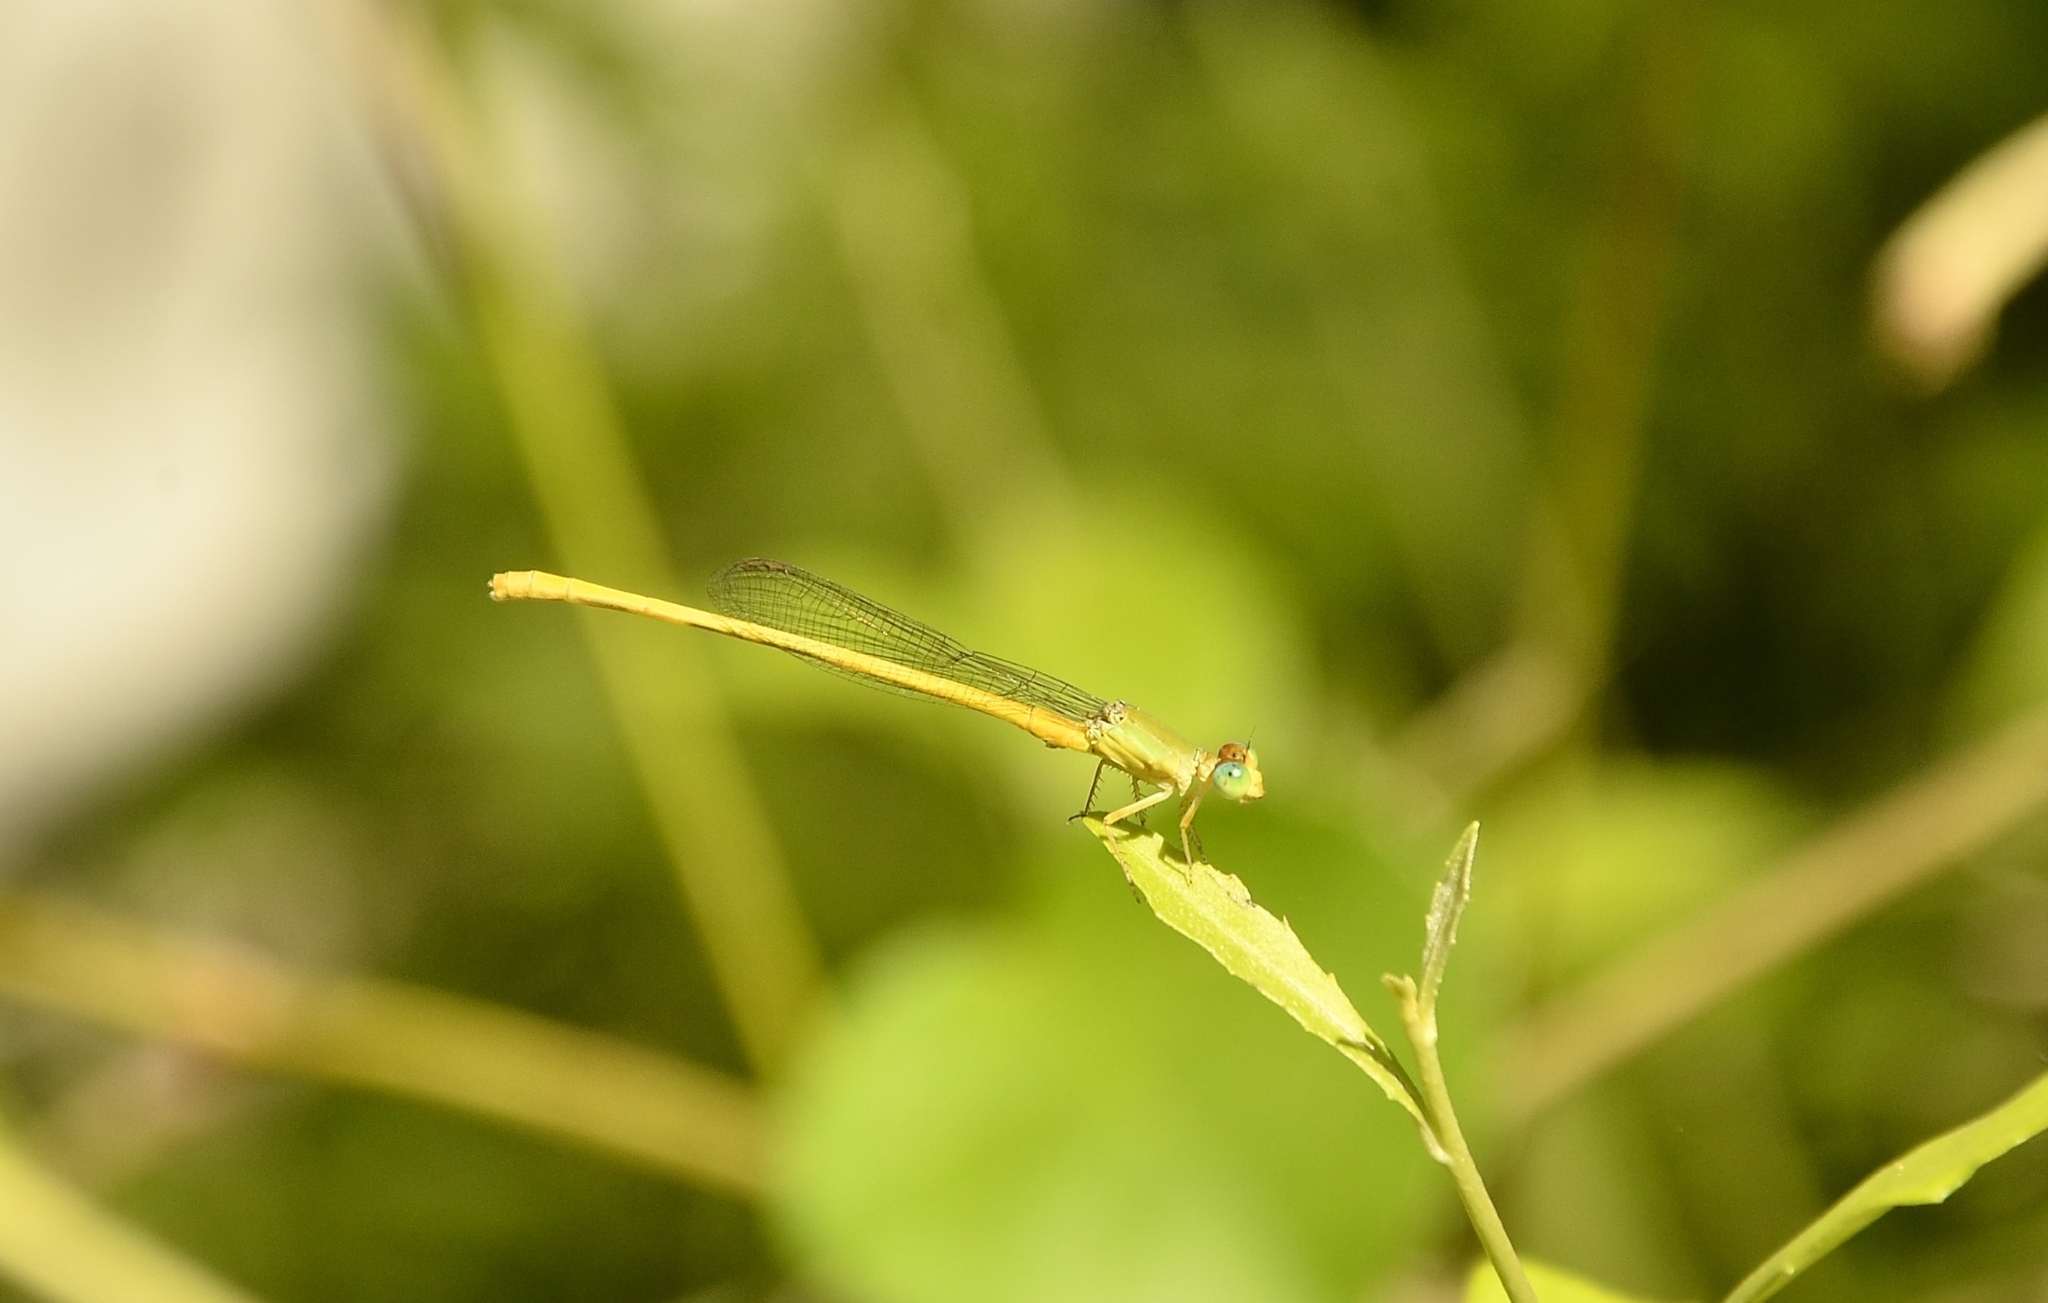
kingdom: Animalia
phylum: Arthropoda
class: Insecta
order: Odonata
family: Coenagrionidae
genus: Ceriagrion
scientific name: Ceriagrion coromandelianum
